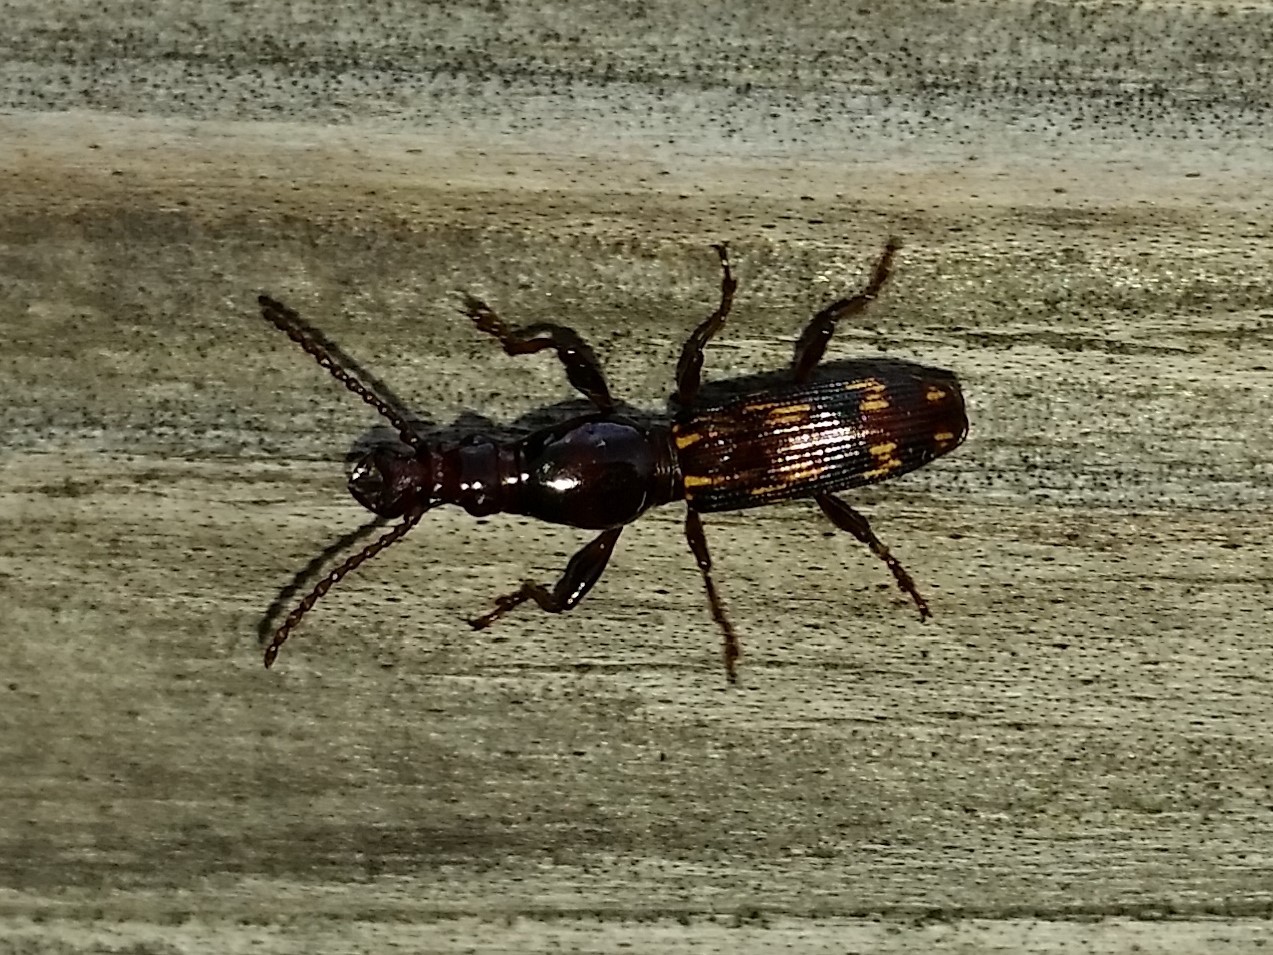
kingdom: Animalia
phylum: Arthropoda
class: Insecta
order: Coleoptera
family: Brentidae
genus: Arrenodes
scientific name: Arrenodes minutus
